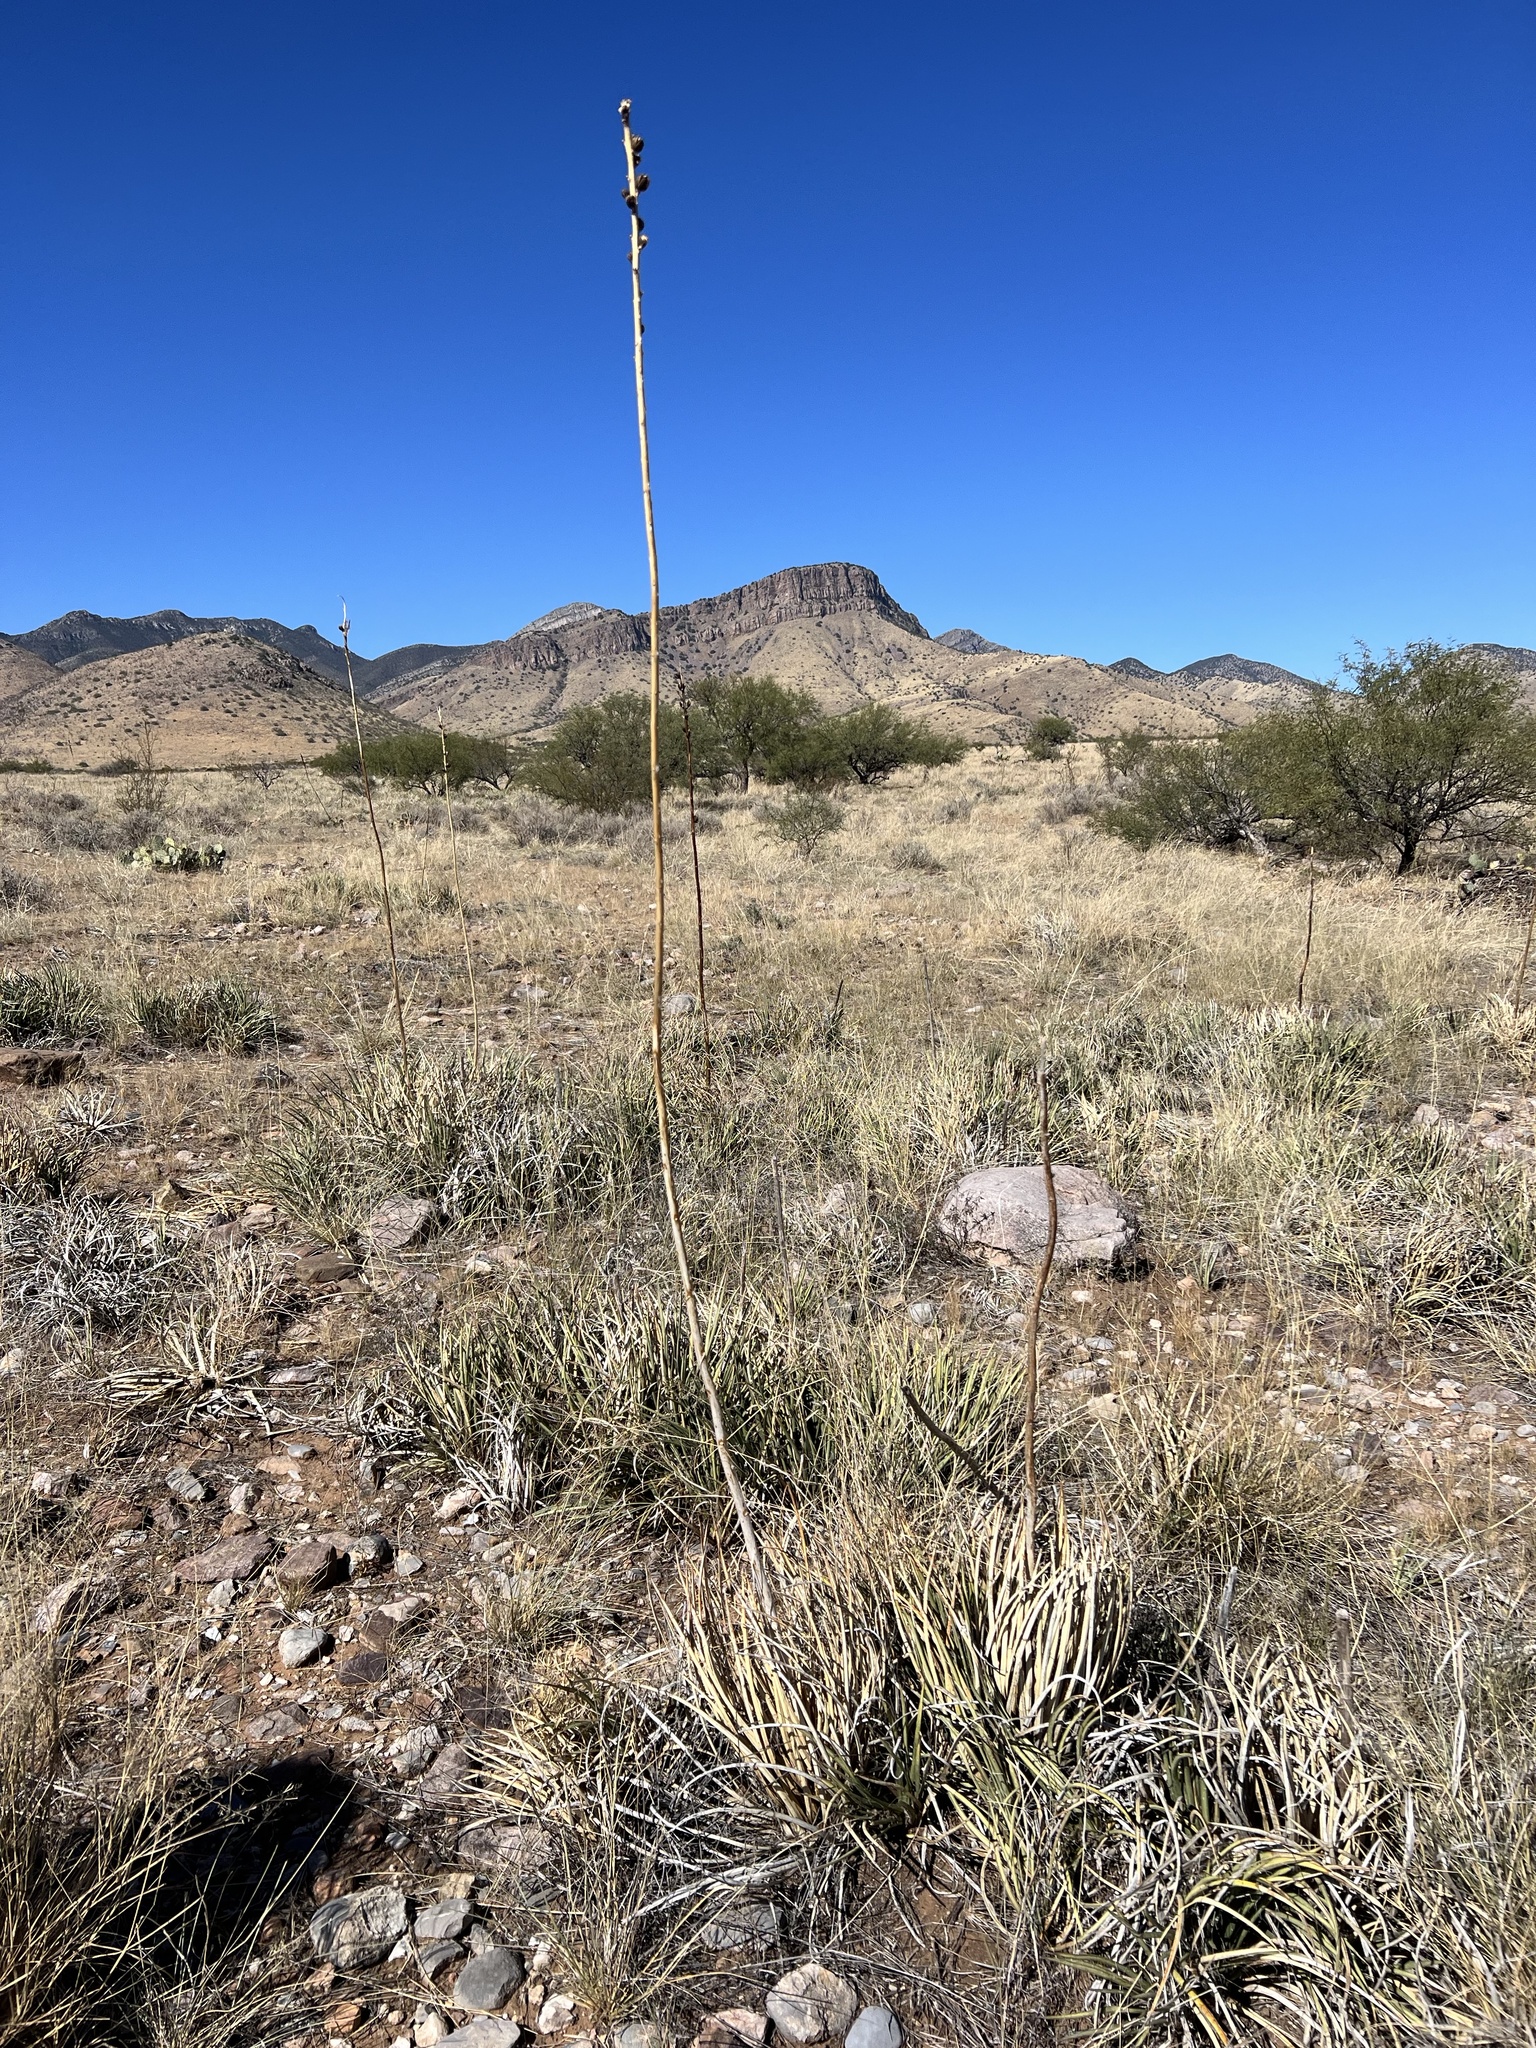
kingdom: Plantae
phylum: Tracheophyta
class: Liliopsida
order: Asparagales
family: Asparagaceae
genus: Agave
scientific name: Agave schottii
